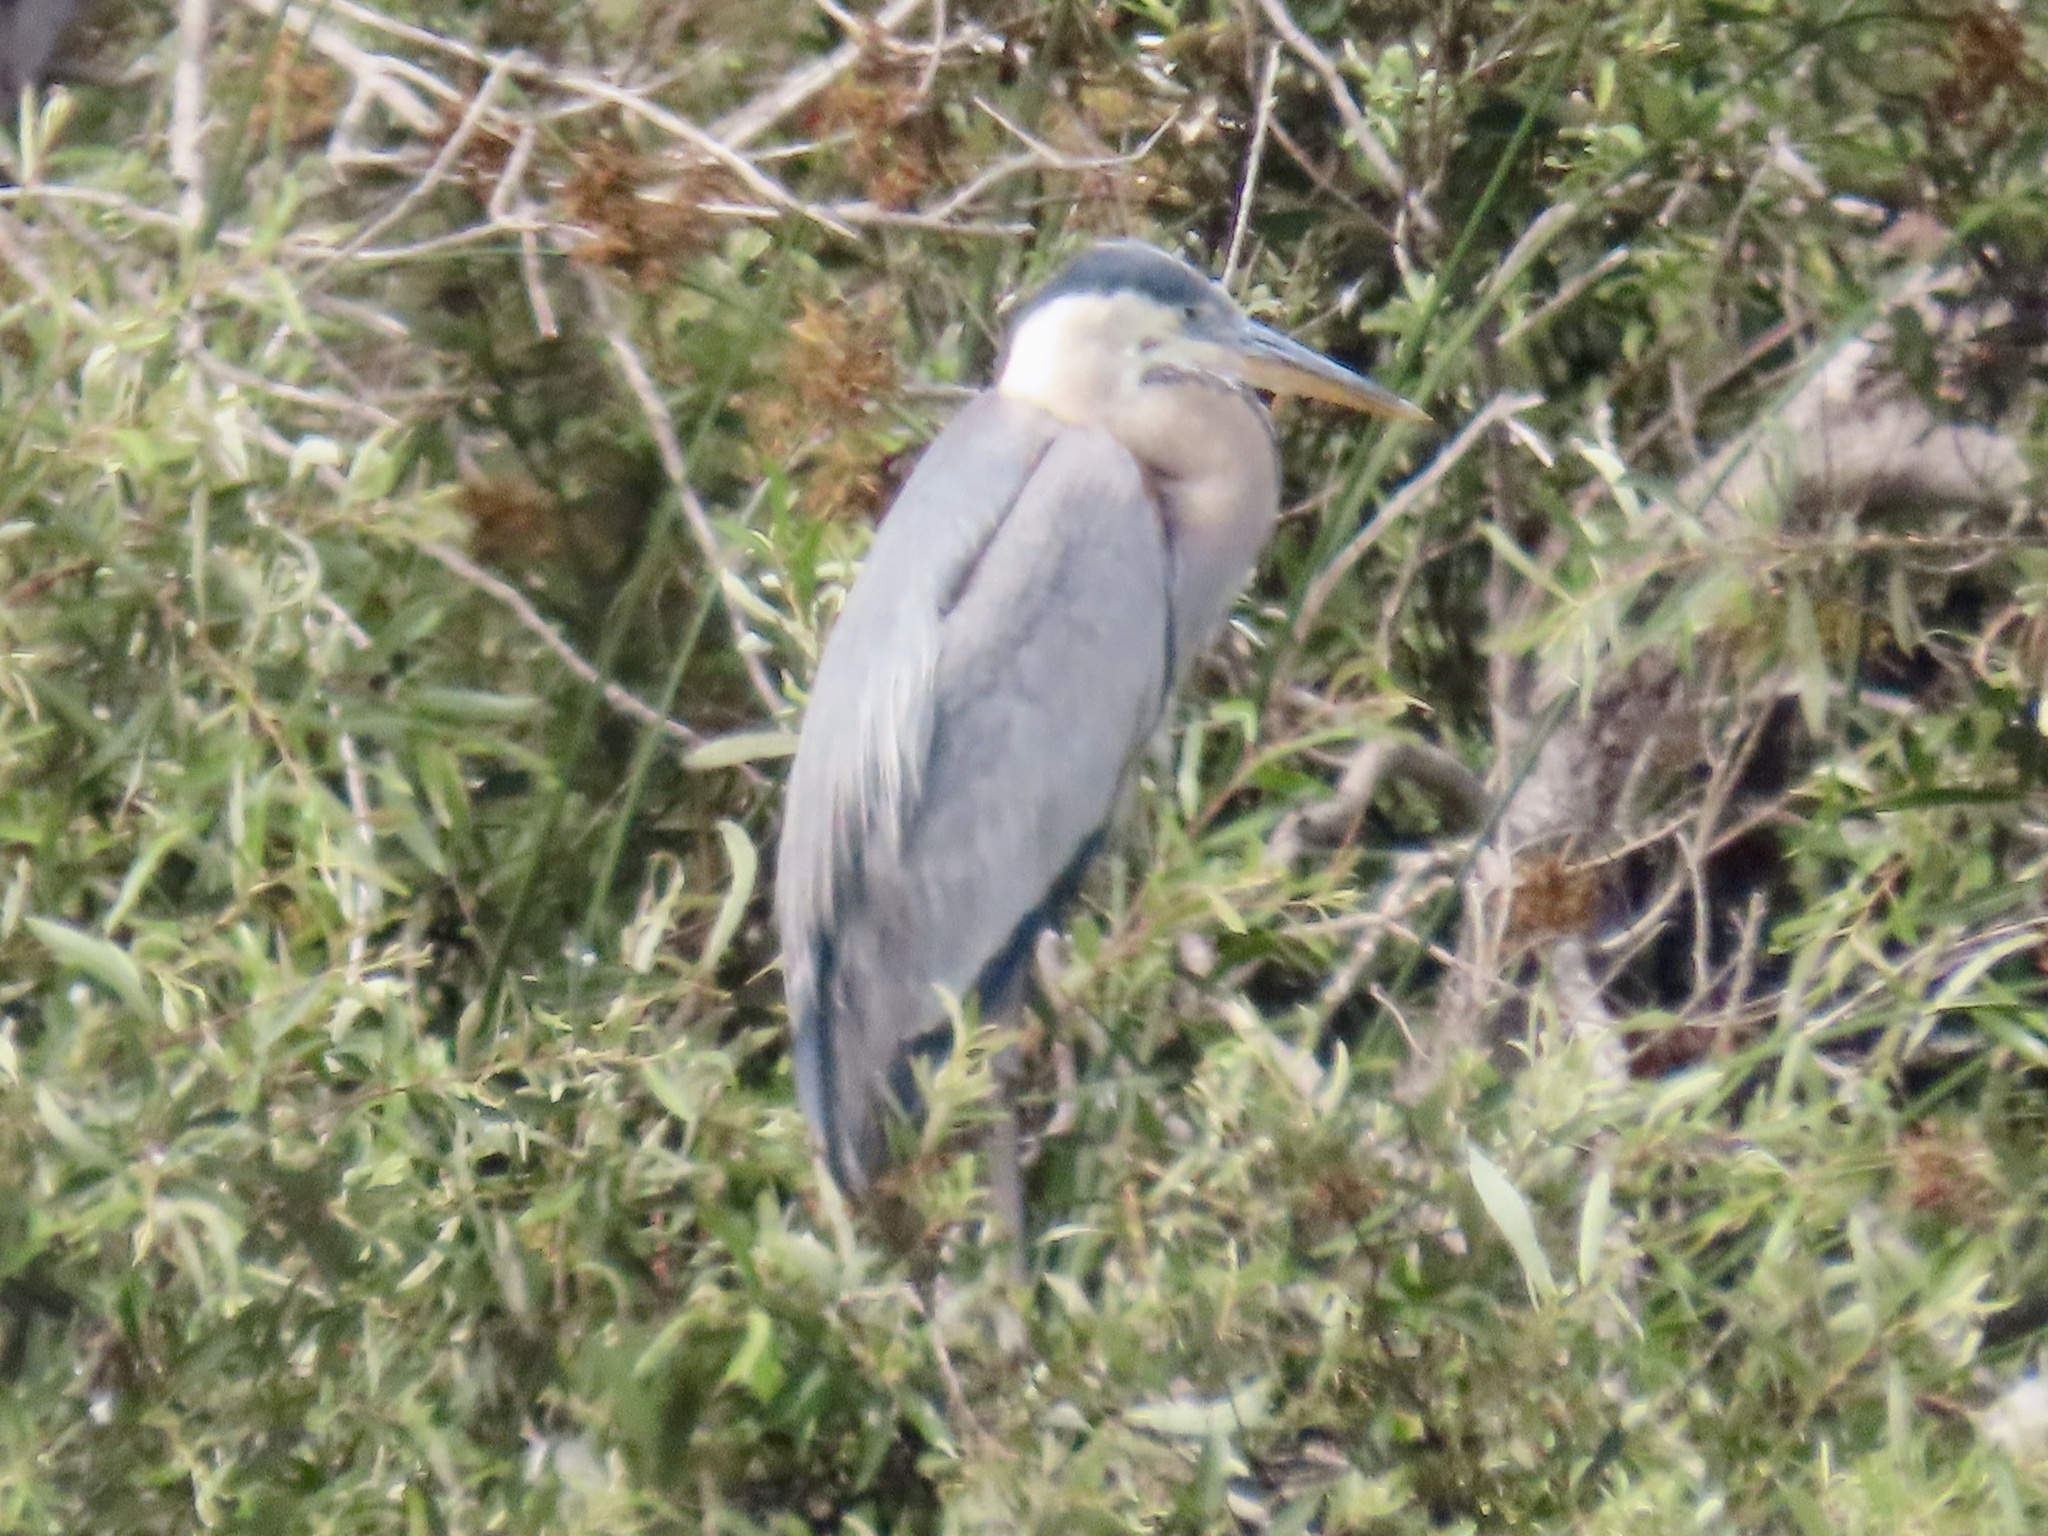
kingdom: Animalia
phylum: Chordata
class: Aves
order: Pelecaniformes
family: Ardeidae
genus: Ardea
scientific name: Ardea herodias
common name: Great blue heron
